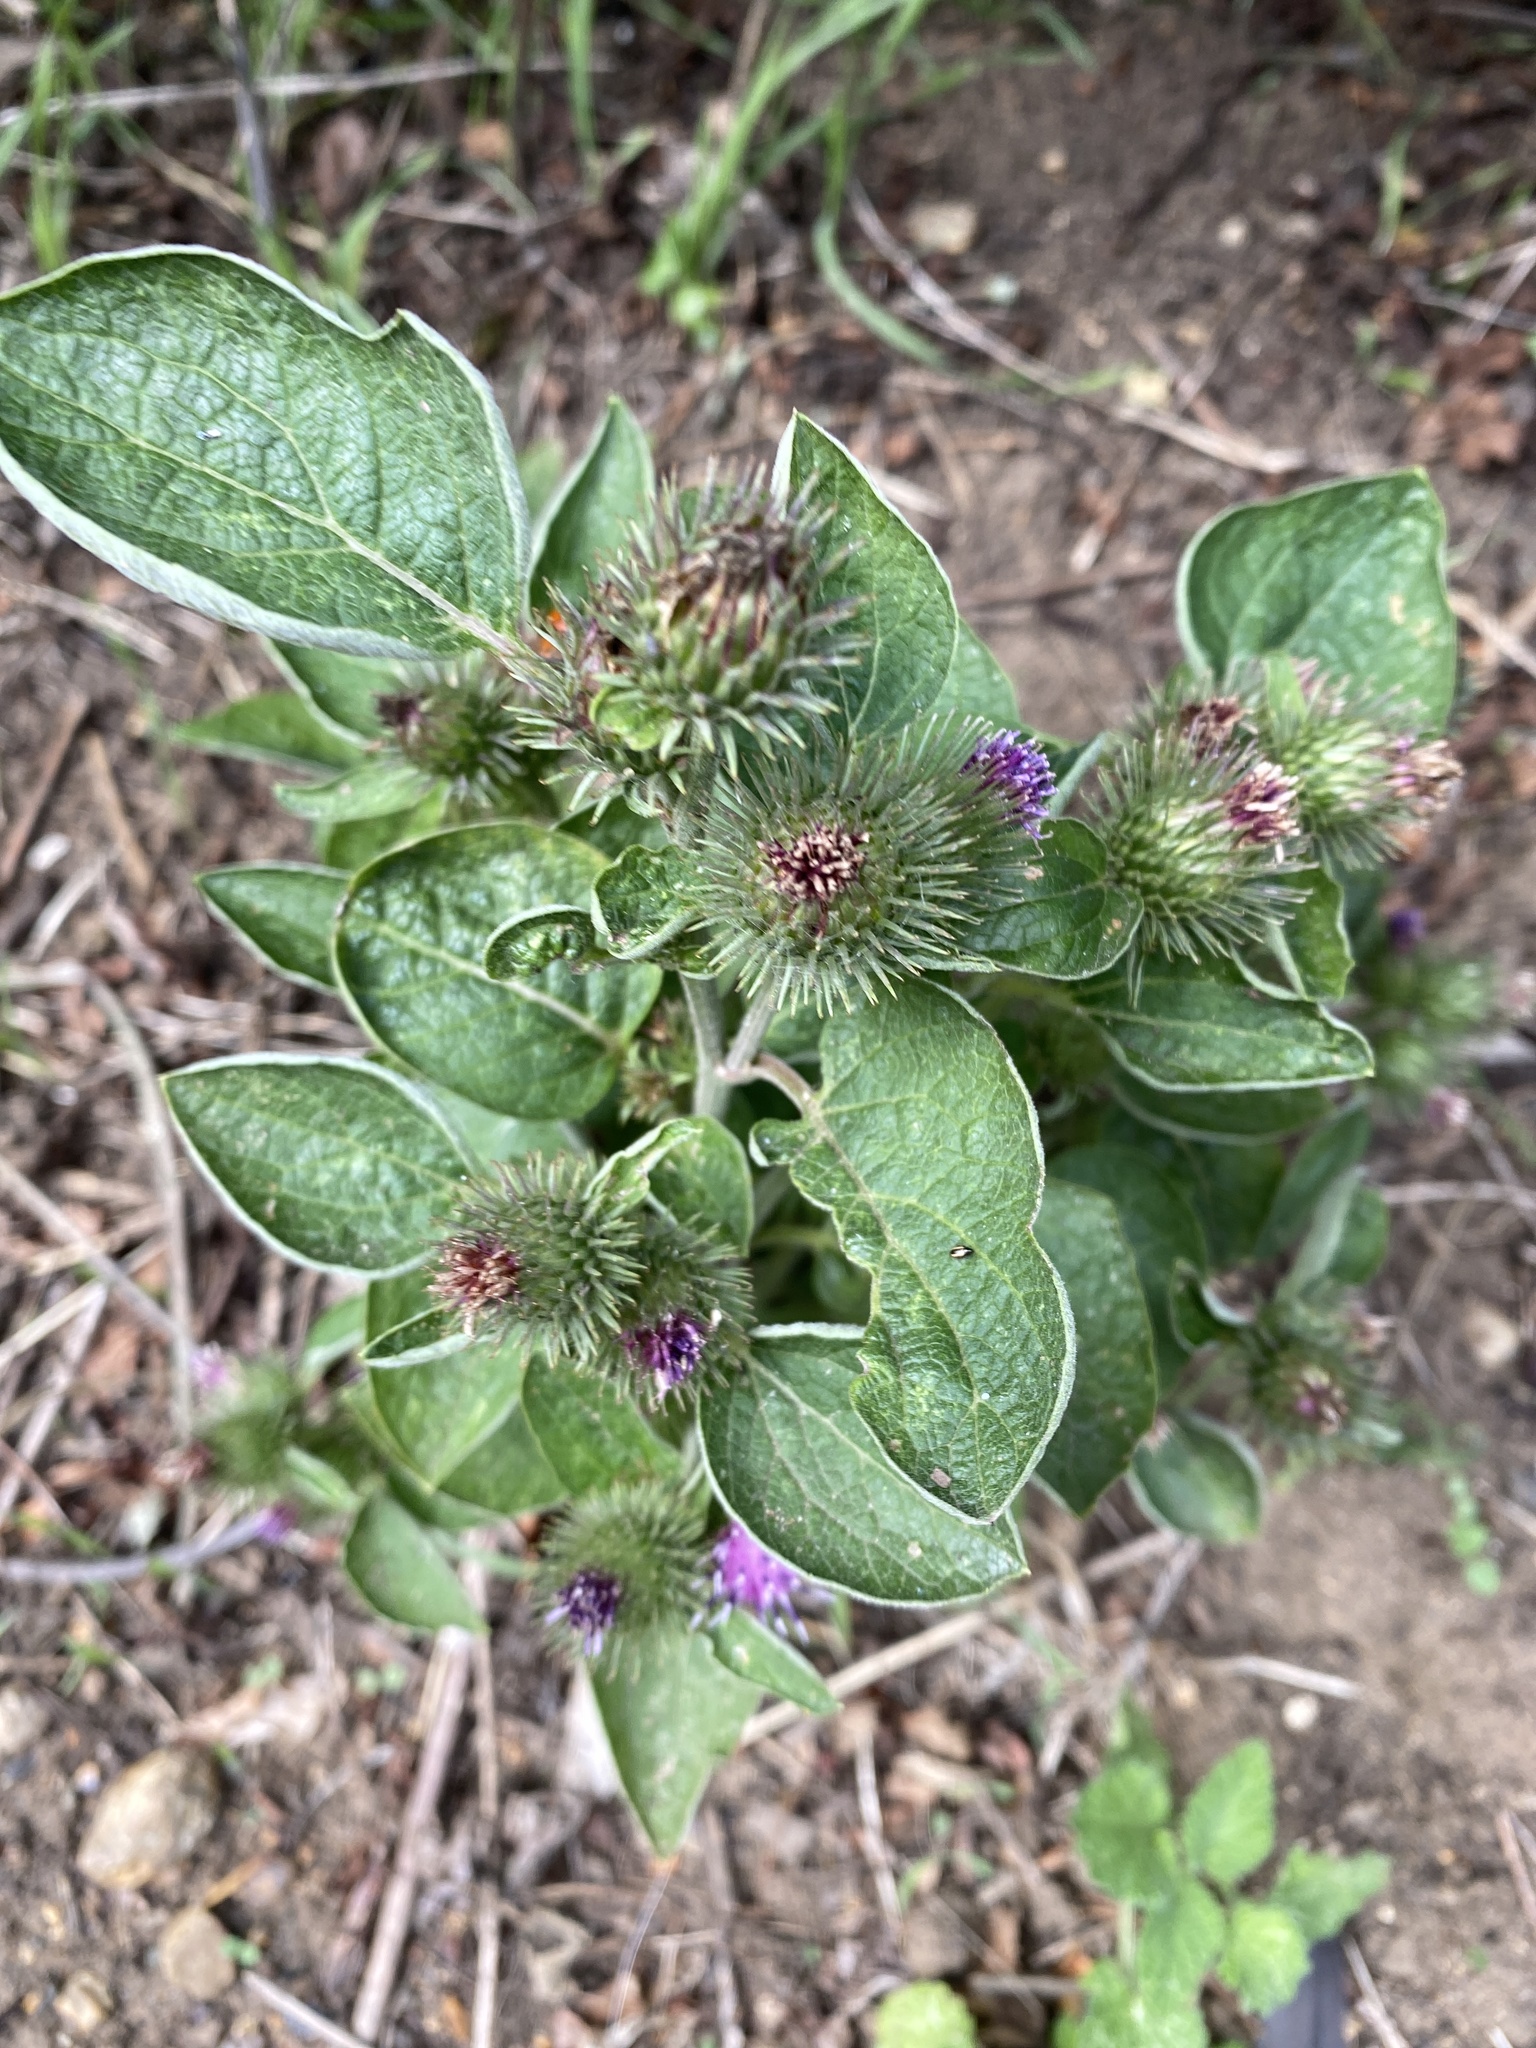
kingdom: Plantae
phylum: Tracheophyta
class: Magnoliopsida
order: Asterales
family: Asteraceae
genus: Arctium
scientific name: Arctium minus
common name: Lesser burdock
